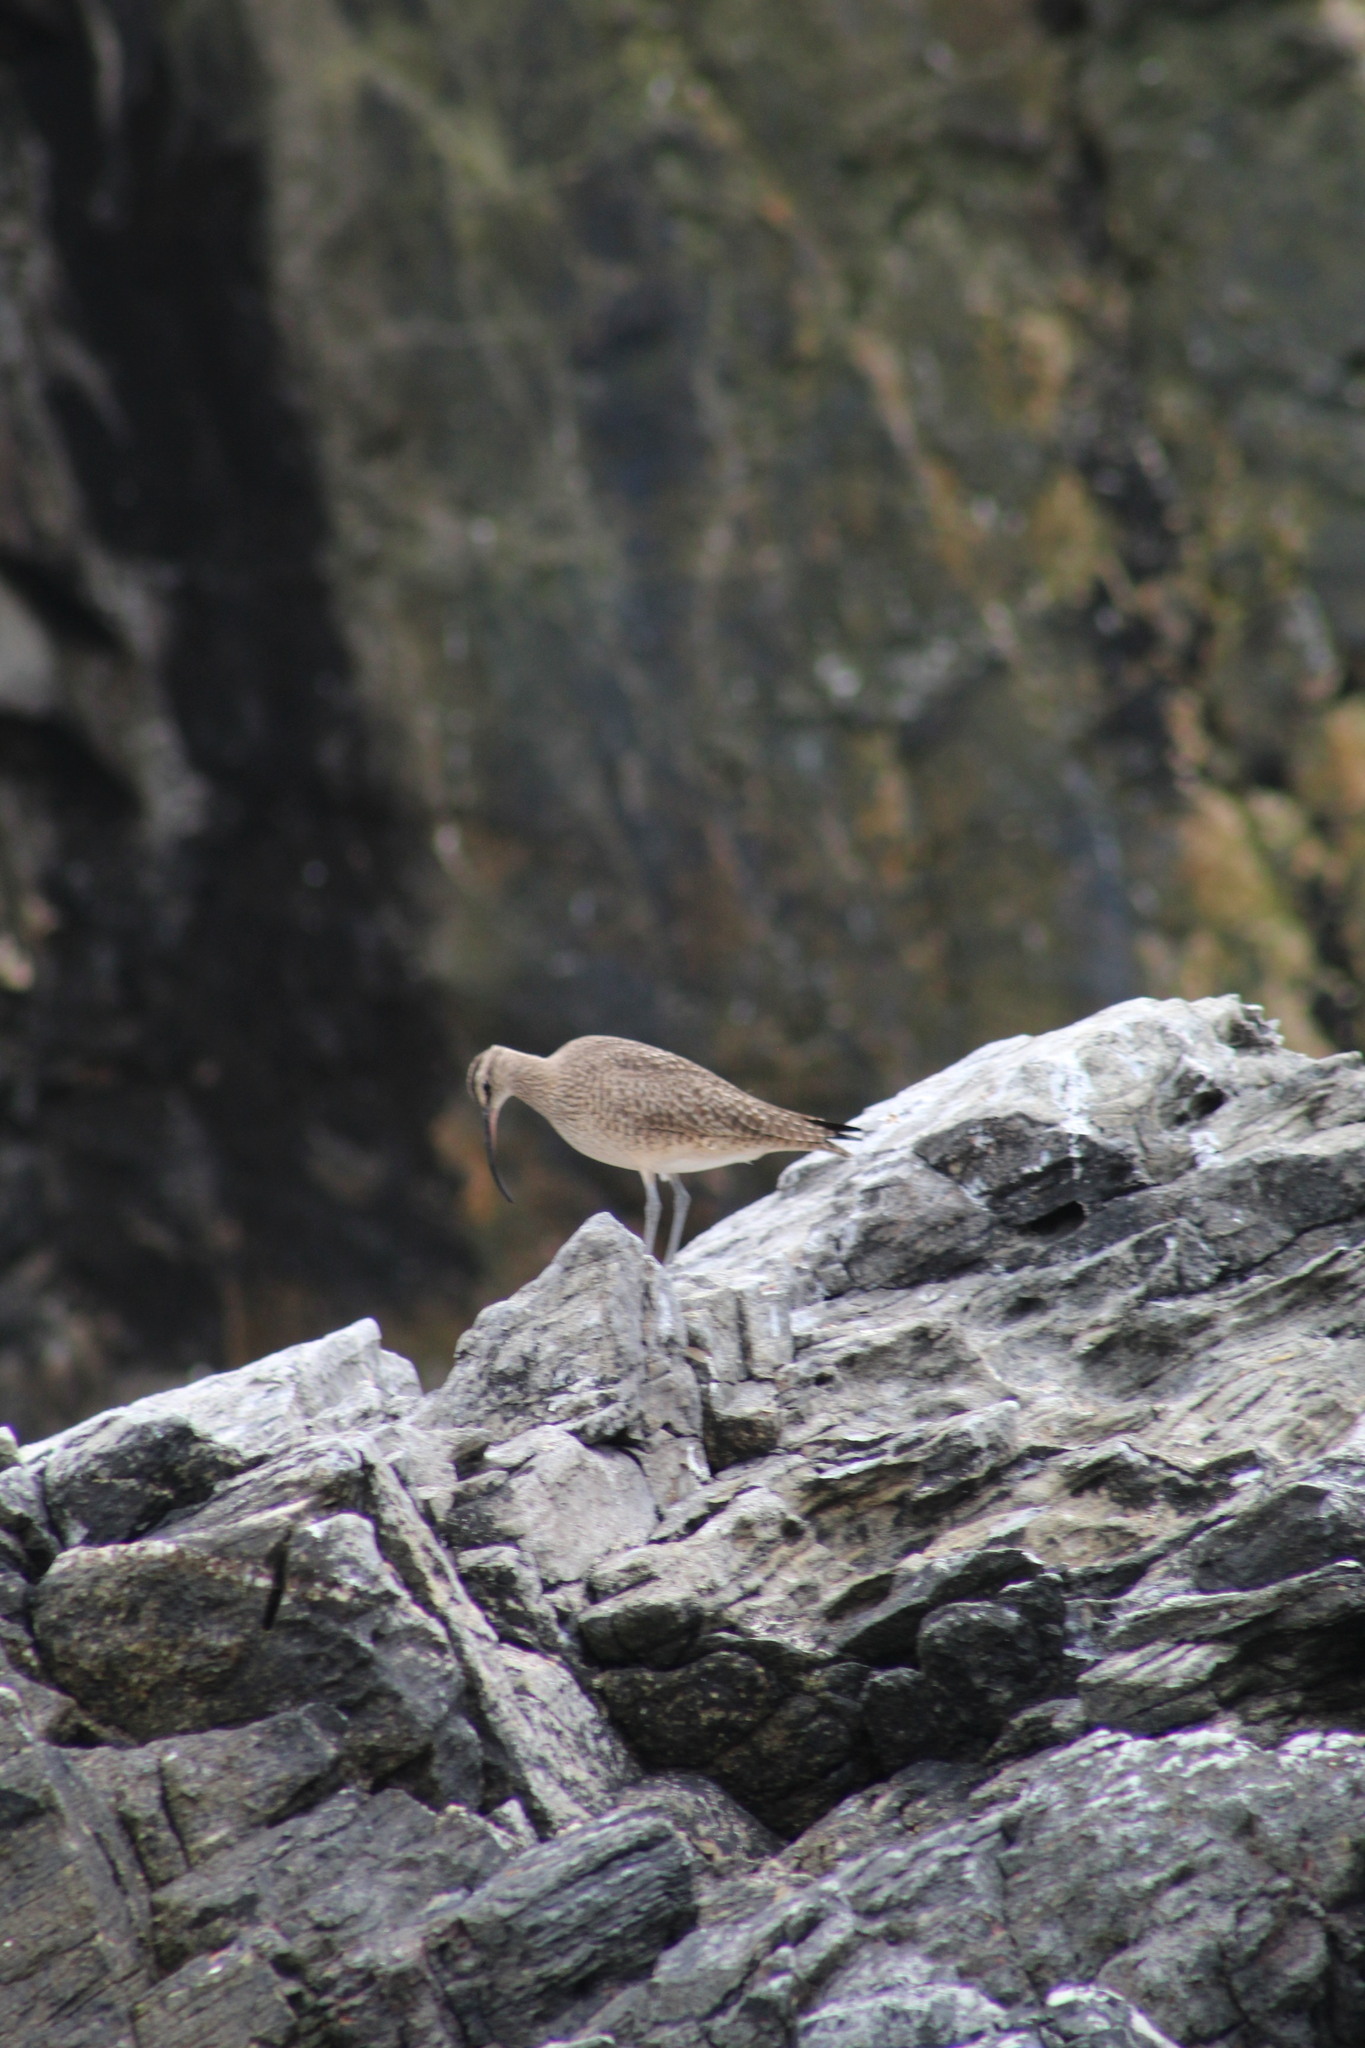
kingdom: Animalia
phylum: Chordata
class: Aves
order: Charadriiformes
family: Scolopacidae
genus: Numenius
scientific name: Numenius phaeopus
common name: Whimbrel
